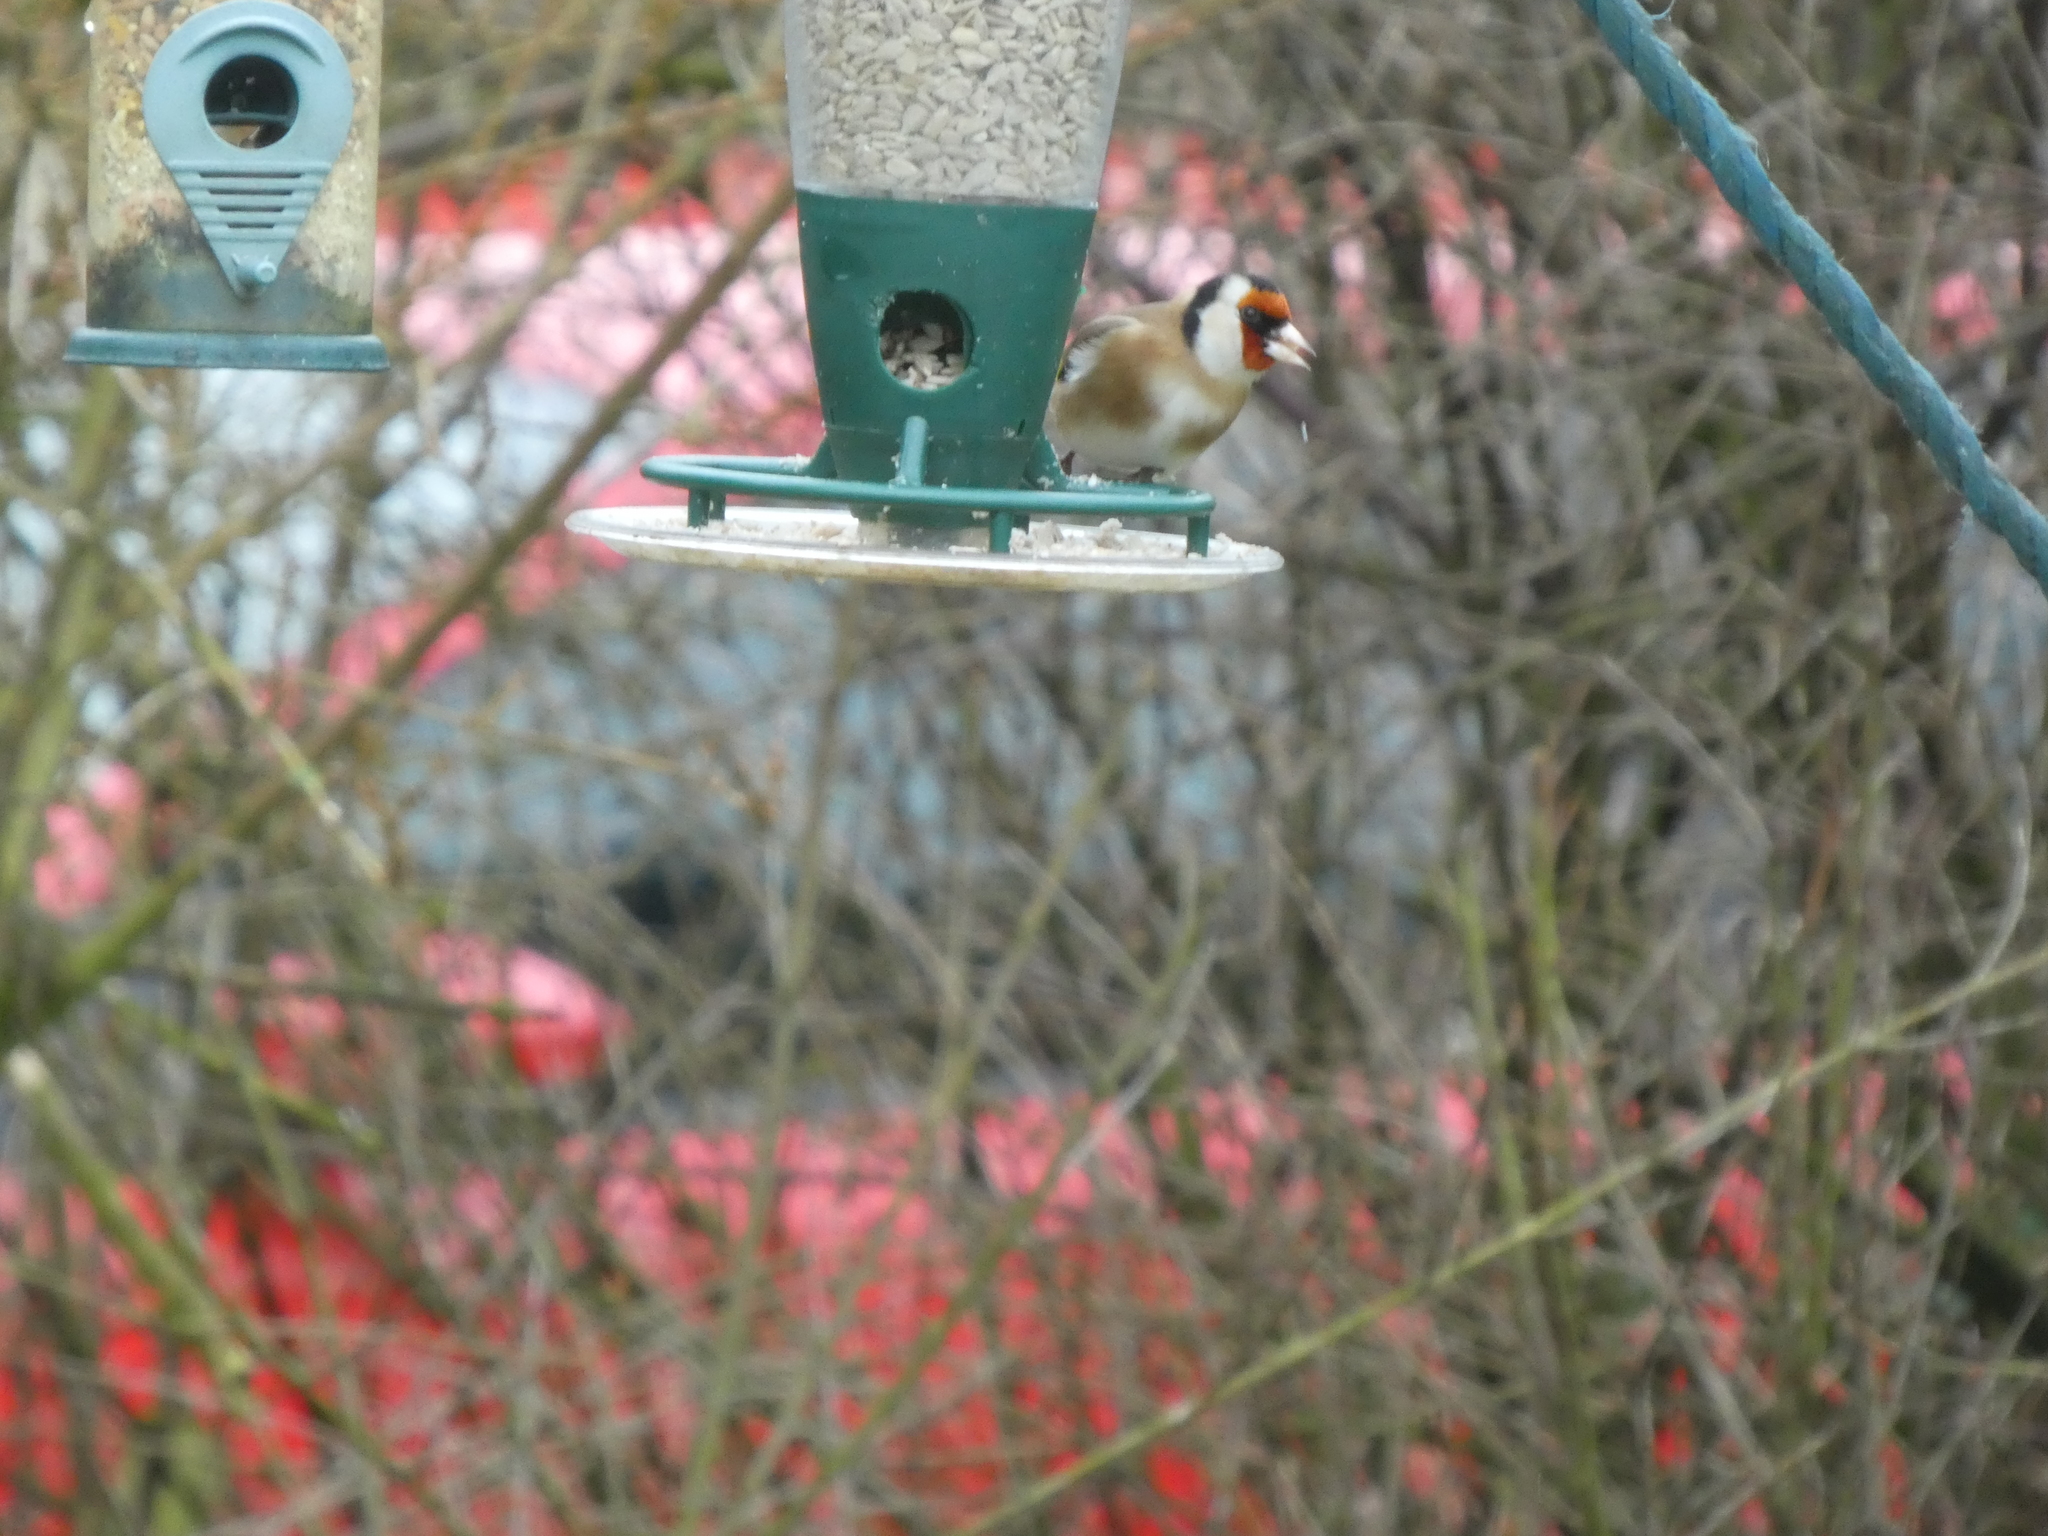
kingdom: Animalia
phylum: Chordata
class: Aves
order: Passeriformes
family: Fringillidae
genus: Carduelis
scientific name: Carduelis carduelis
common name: European goldfinch
